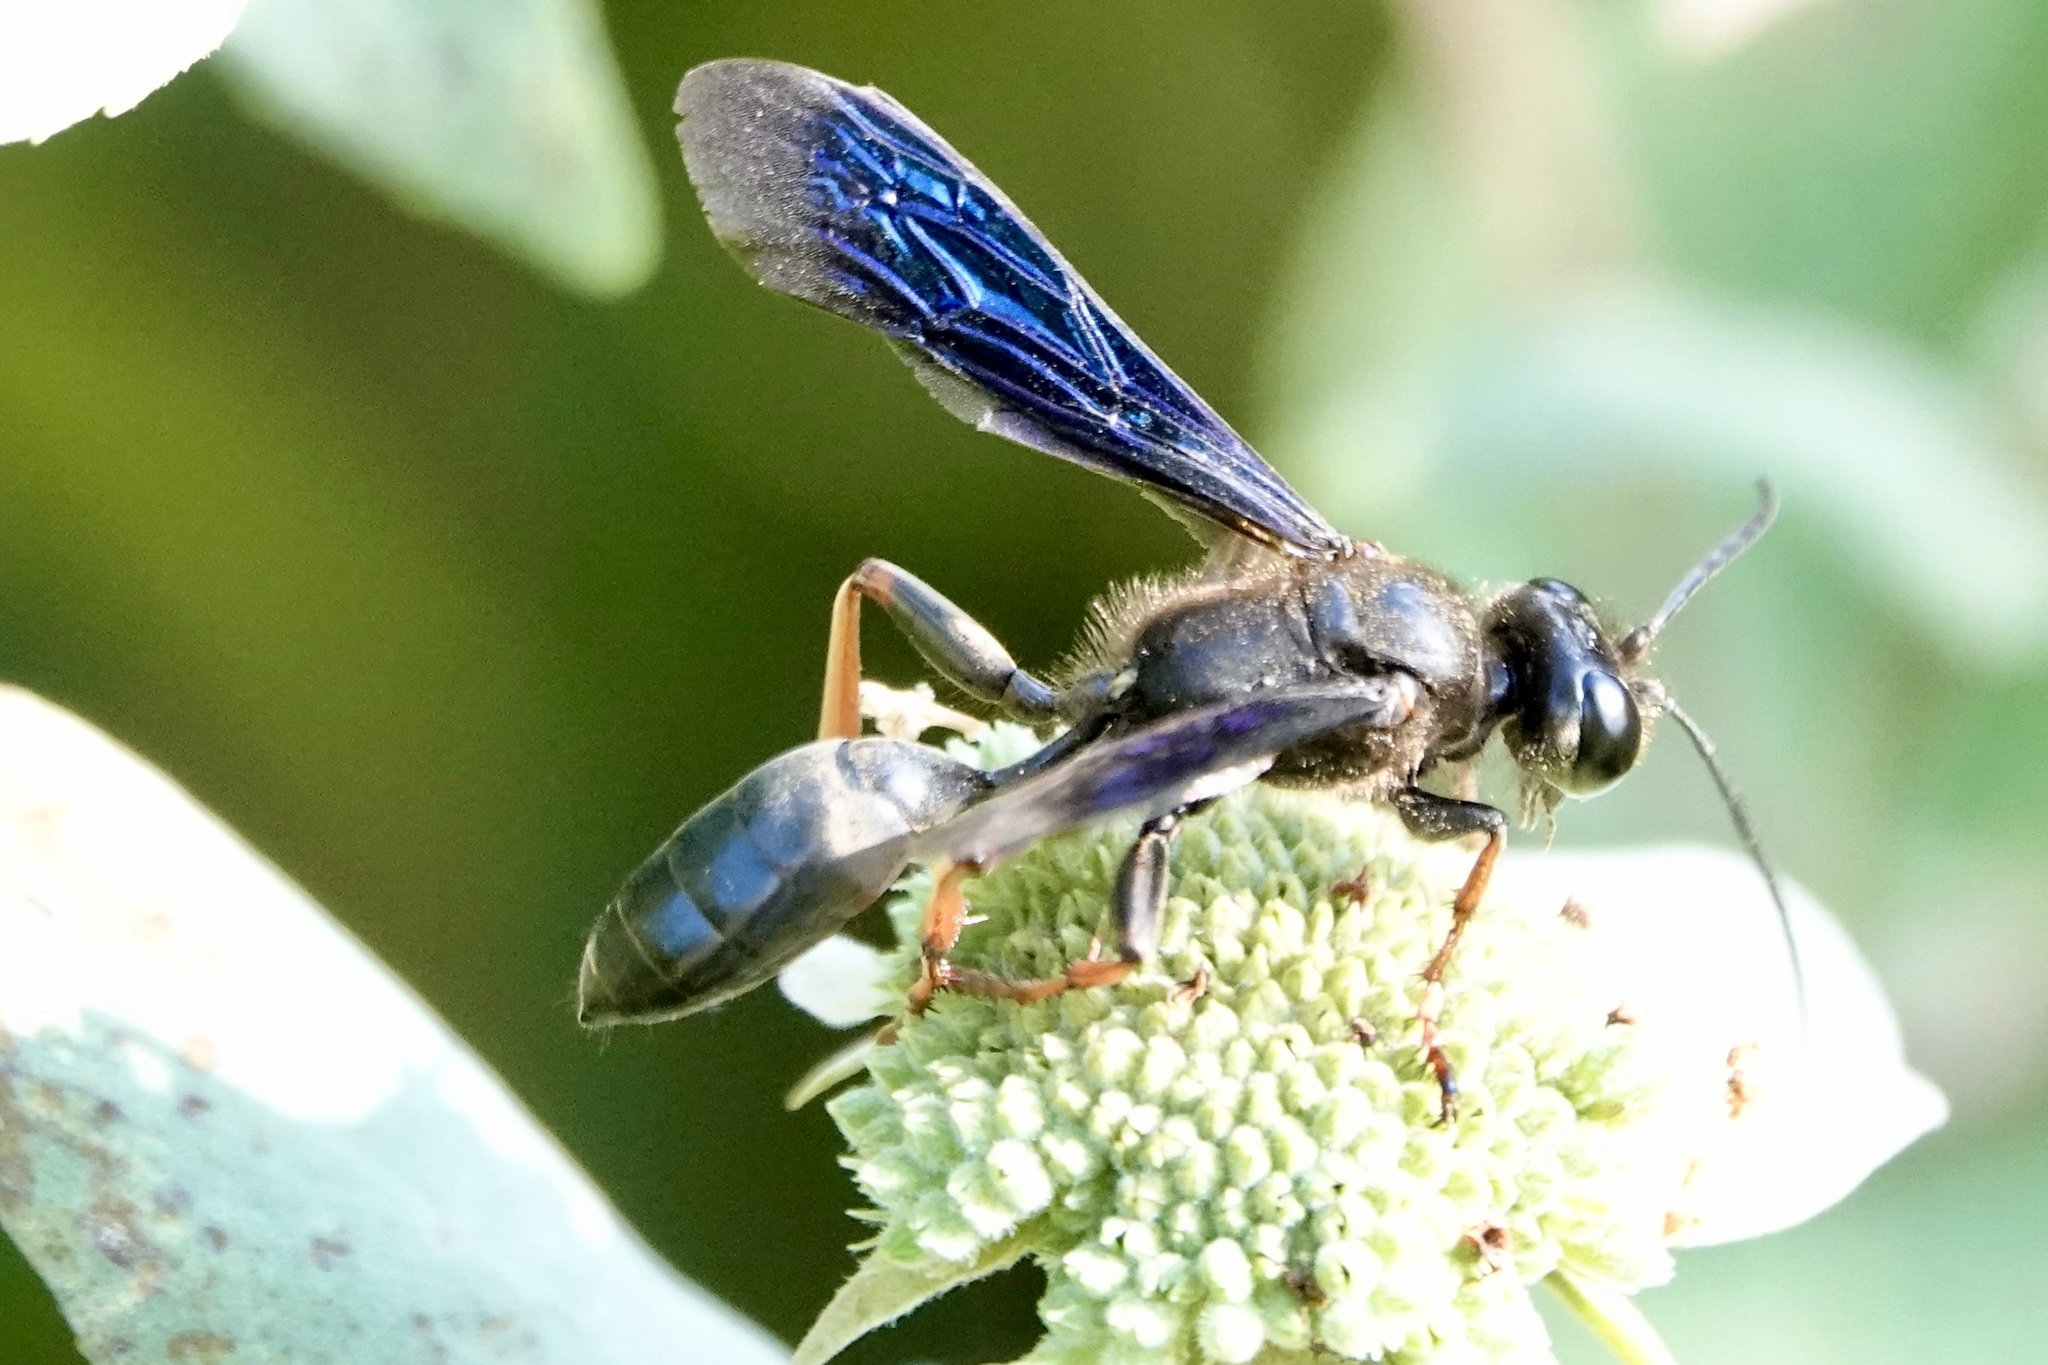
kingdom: Animalia
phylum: Arthropoda
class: Insecta
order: Hymenoptera
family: Sphecidae
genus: Isodontia
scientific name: Isodontia auripes
